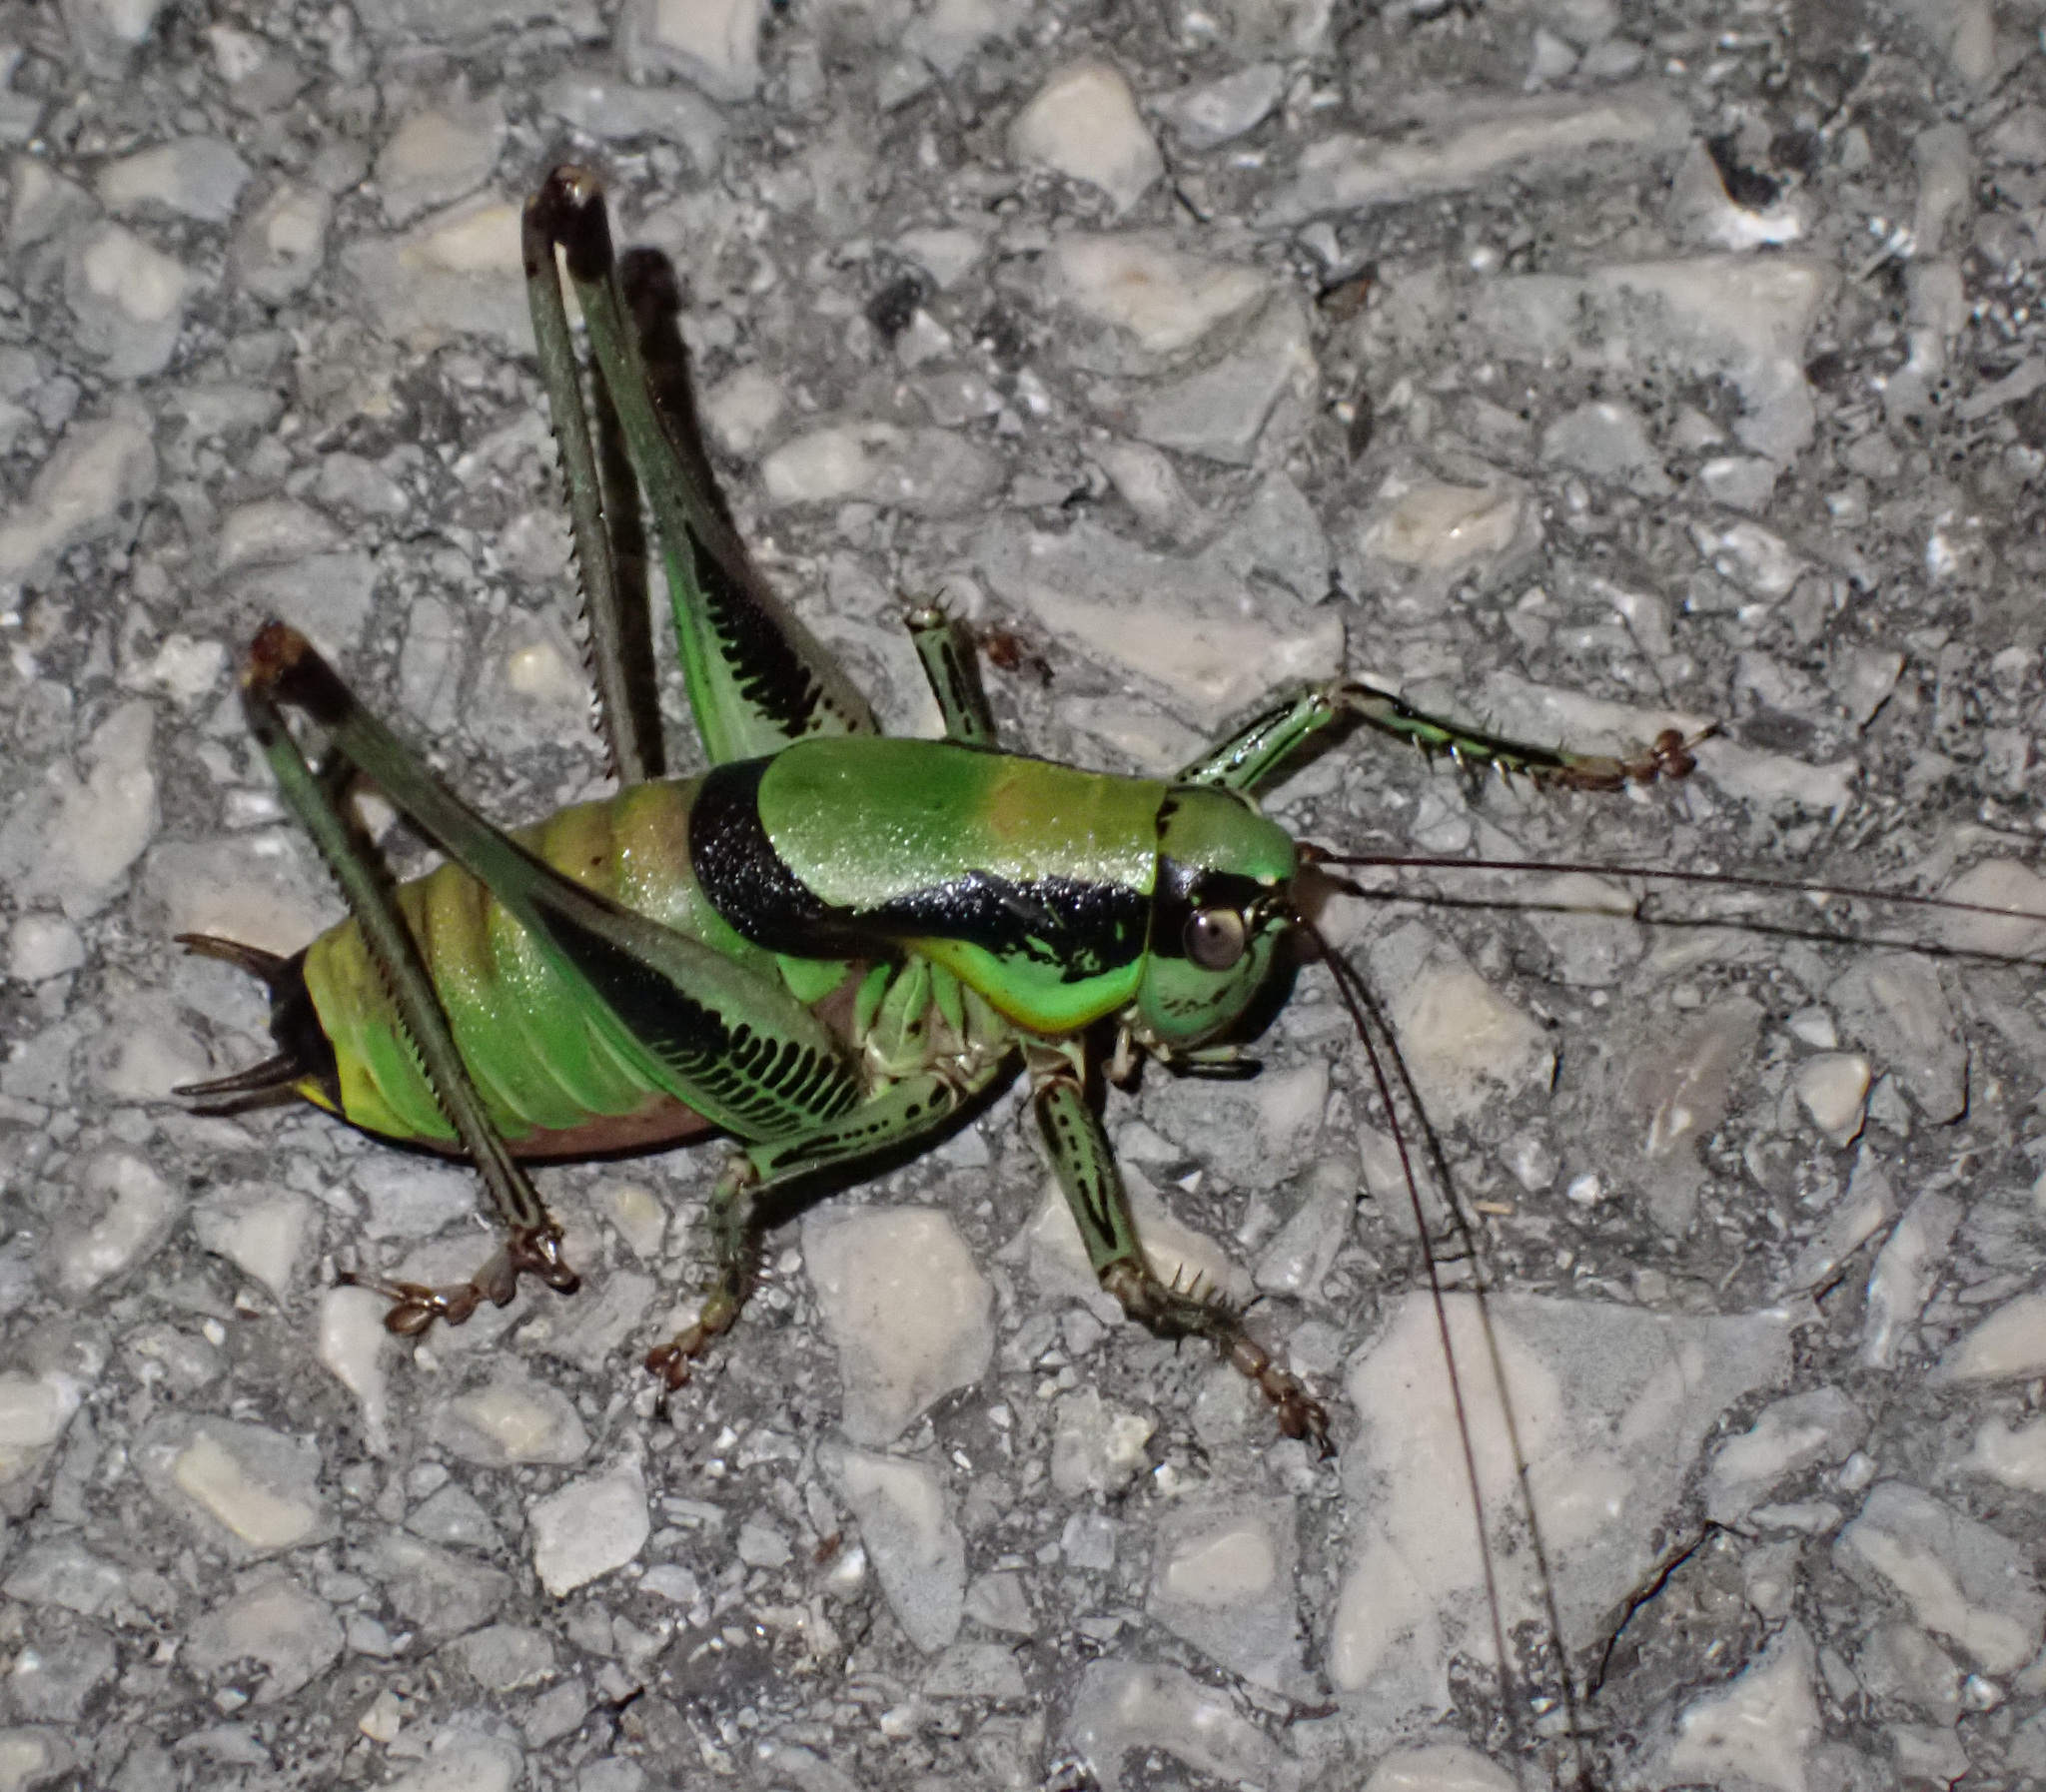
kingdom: Animalia
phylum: Arthropoda
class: Insecta
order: Orthoptera
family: Tettigoniidae
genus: Eupholidoptera
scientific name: Eupholidoptera schmidti
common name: Schmidt's marbled bush-cricket
